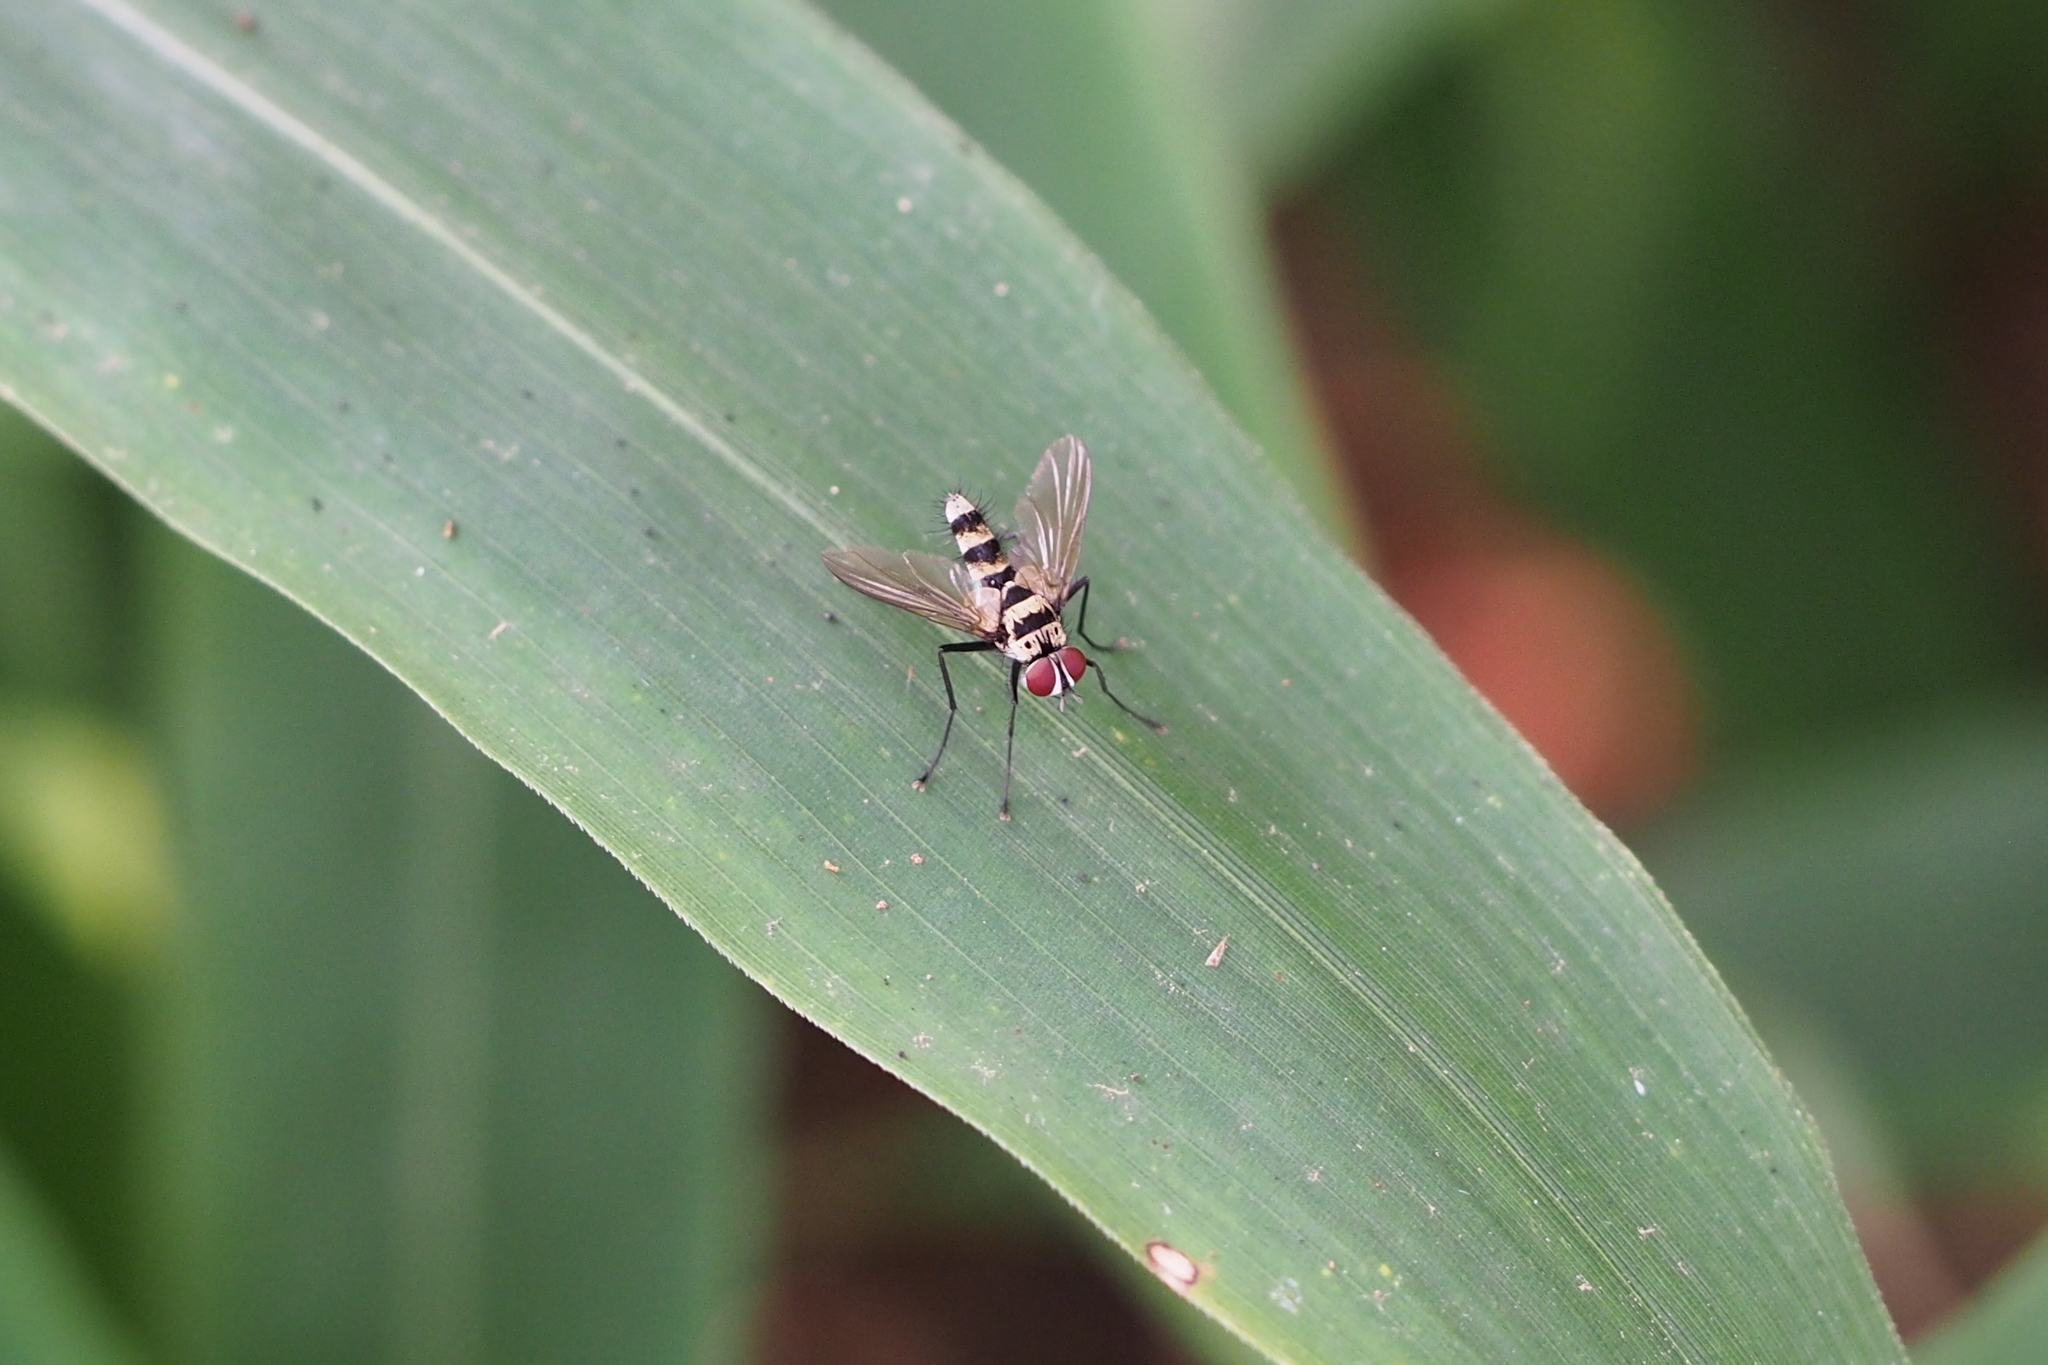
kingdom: Animalia
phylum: Arthropoda
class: Insecta
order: Diptera
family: Tachinidae
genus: Trigonospila
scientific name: Trigonospila transvittata
